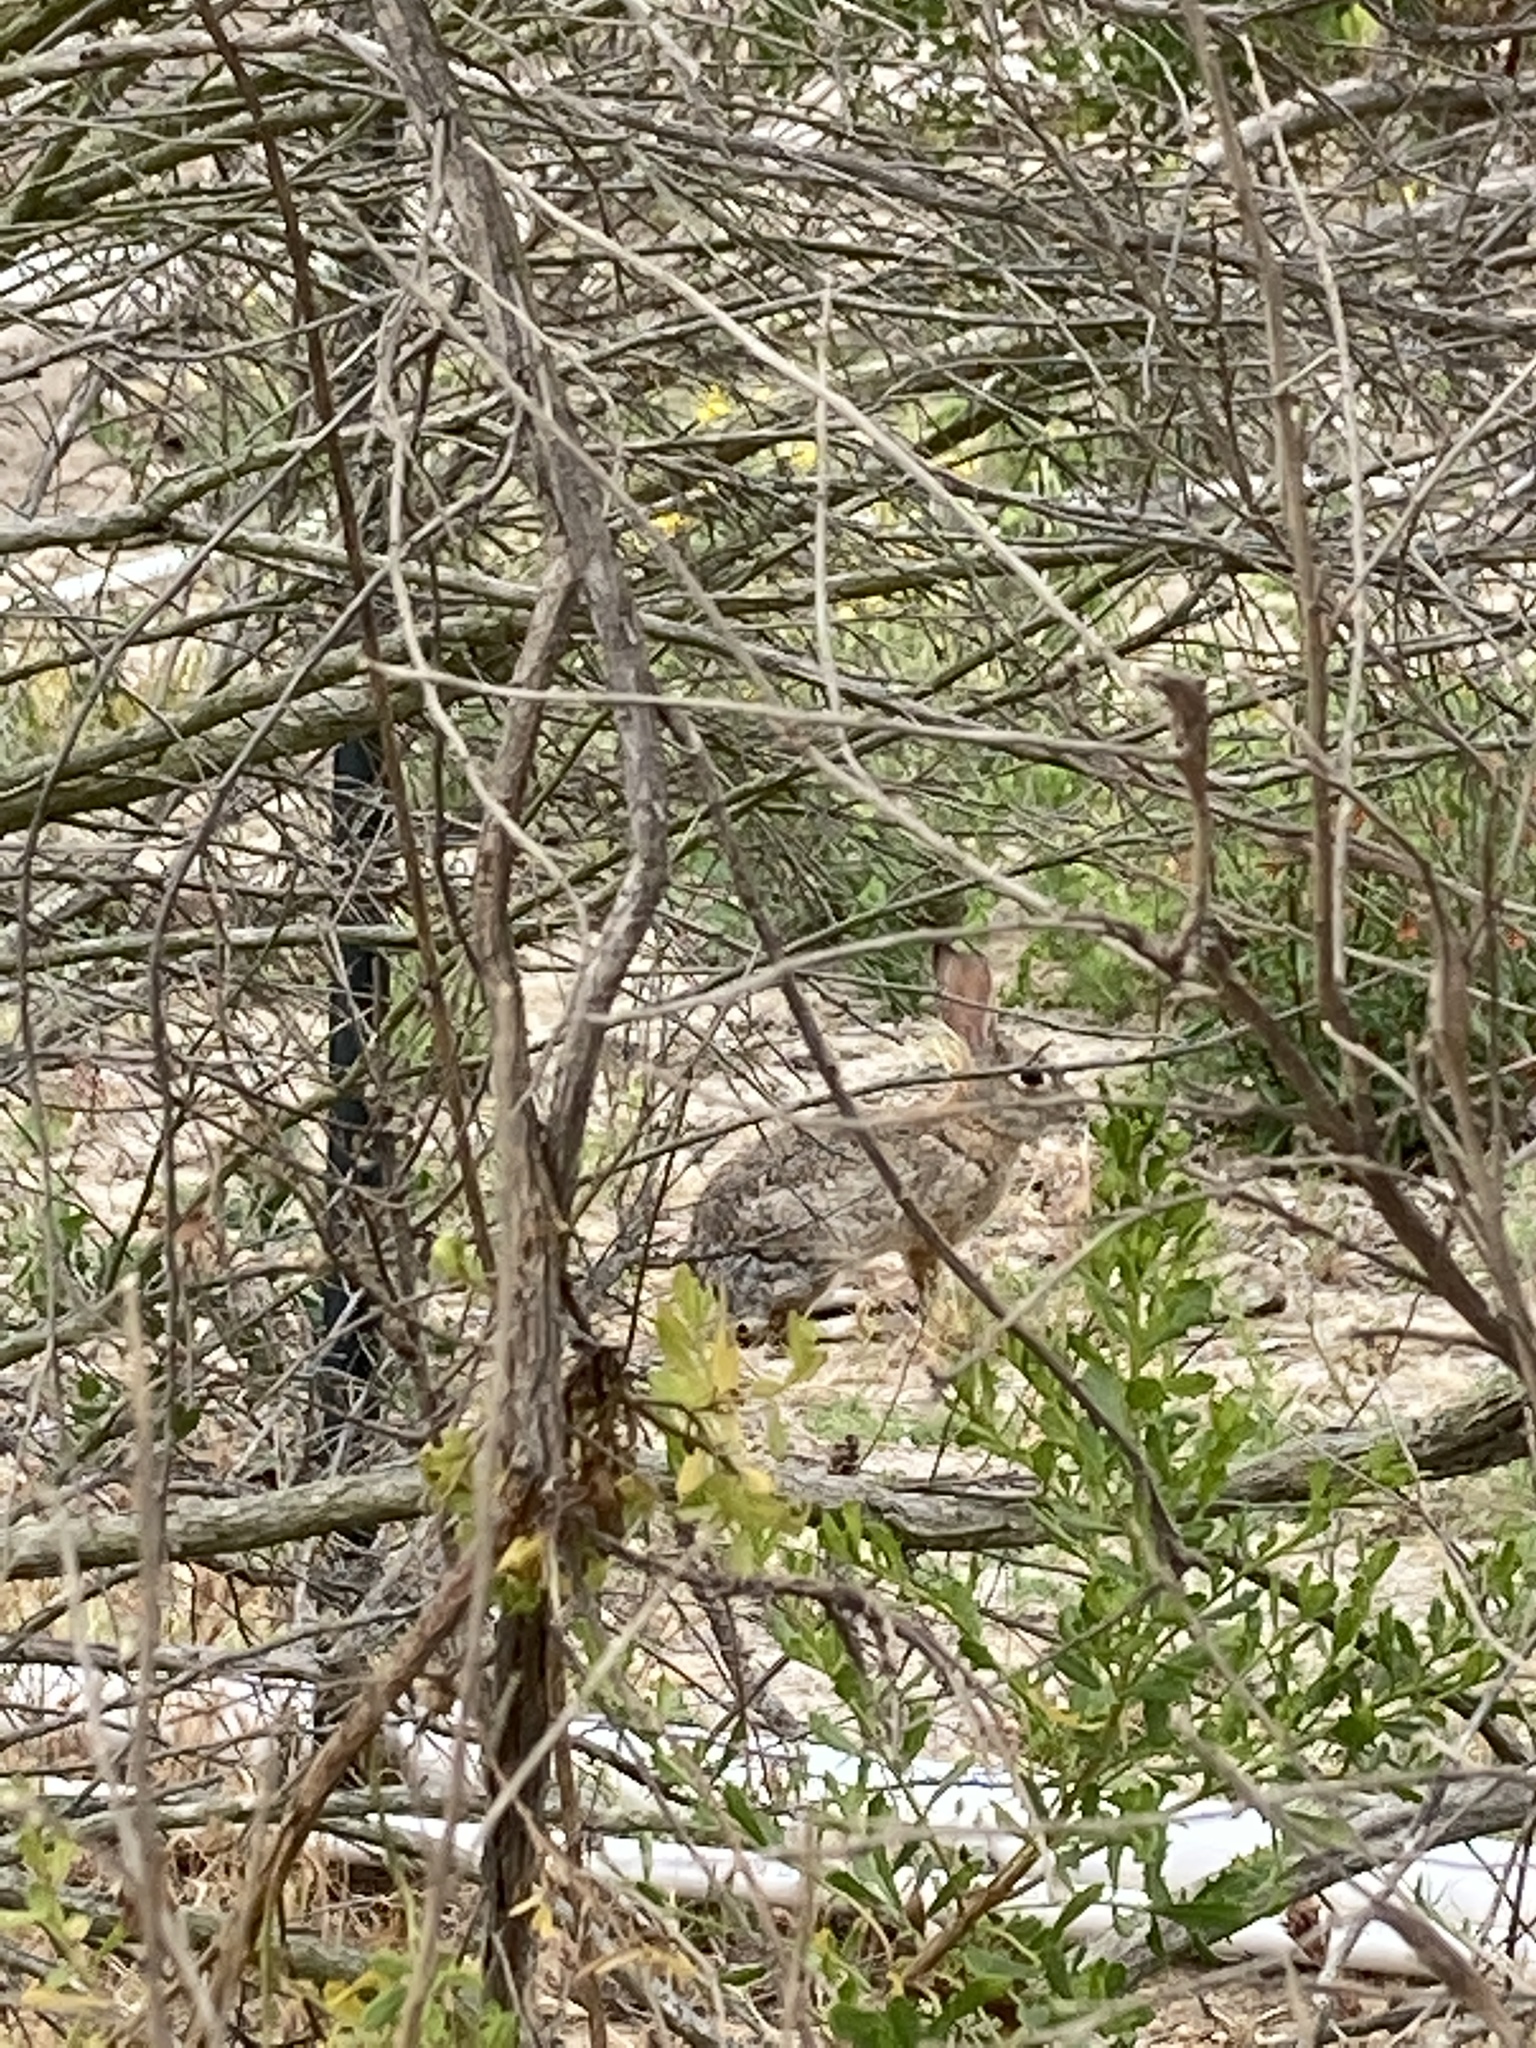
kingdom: Animalia
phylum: Chordata
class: Mammalia
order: Lagomorpha
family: Leporidae
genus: Sylvilagus
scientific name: Sylvilagus audubonii
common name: Desert cottontail
